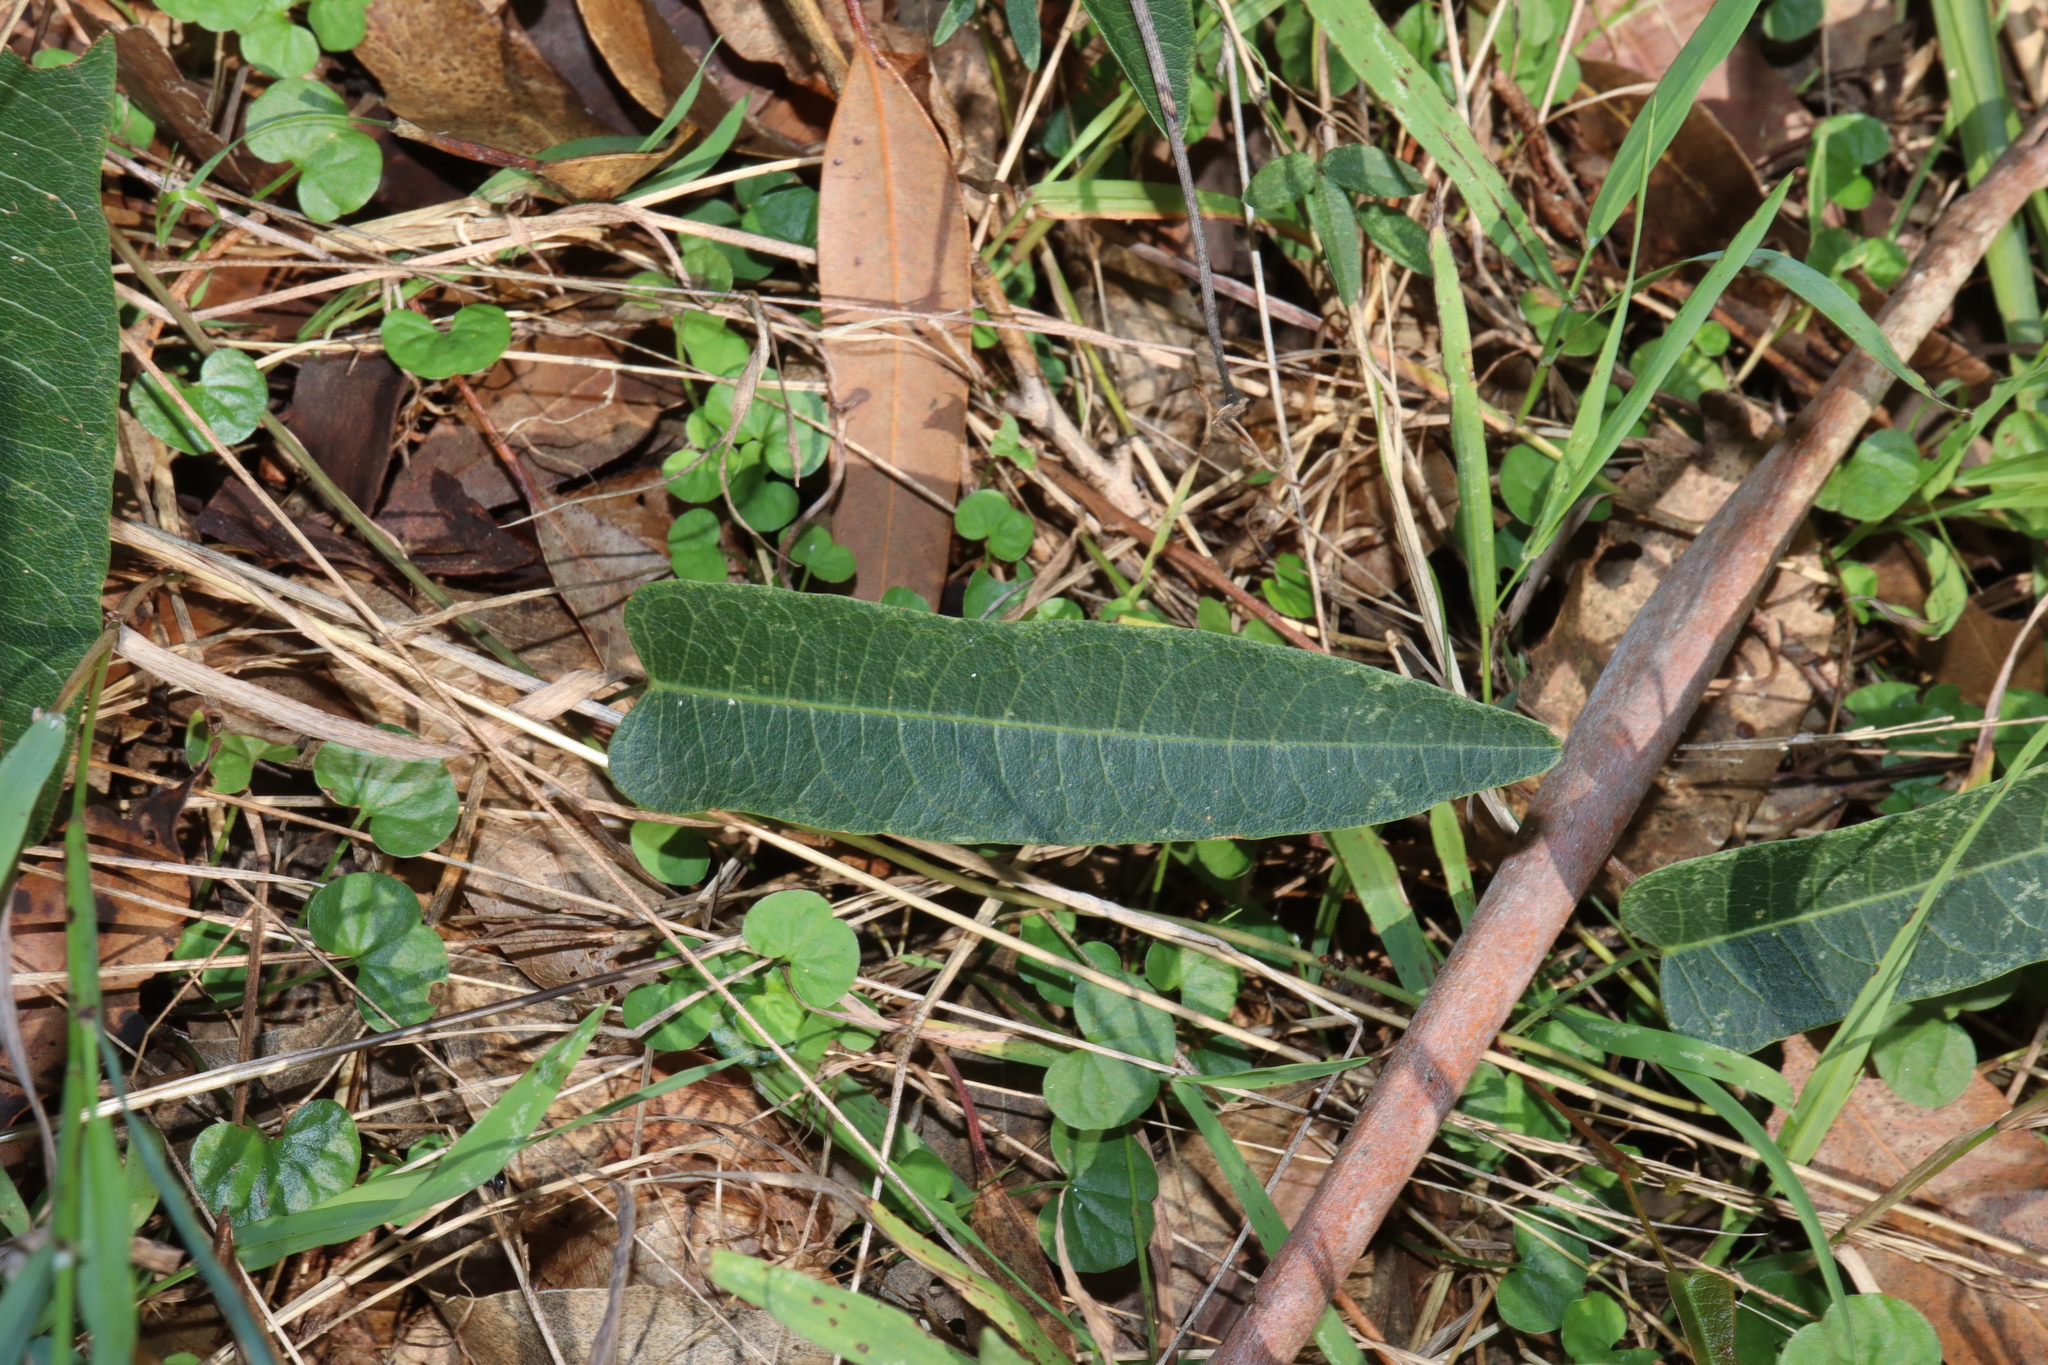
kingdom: Plantae
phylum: Tracheophyta
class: Magnoliopsida
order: Fabales
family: Fabaceae
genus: Hardenbergia
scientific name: Hardenbergia violacea
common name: Coral-pea
